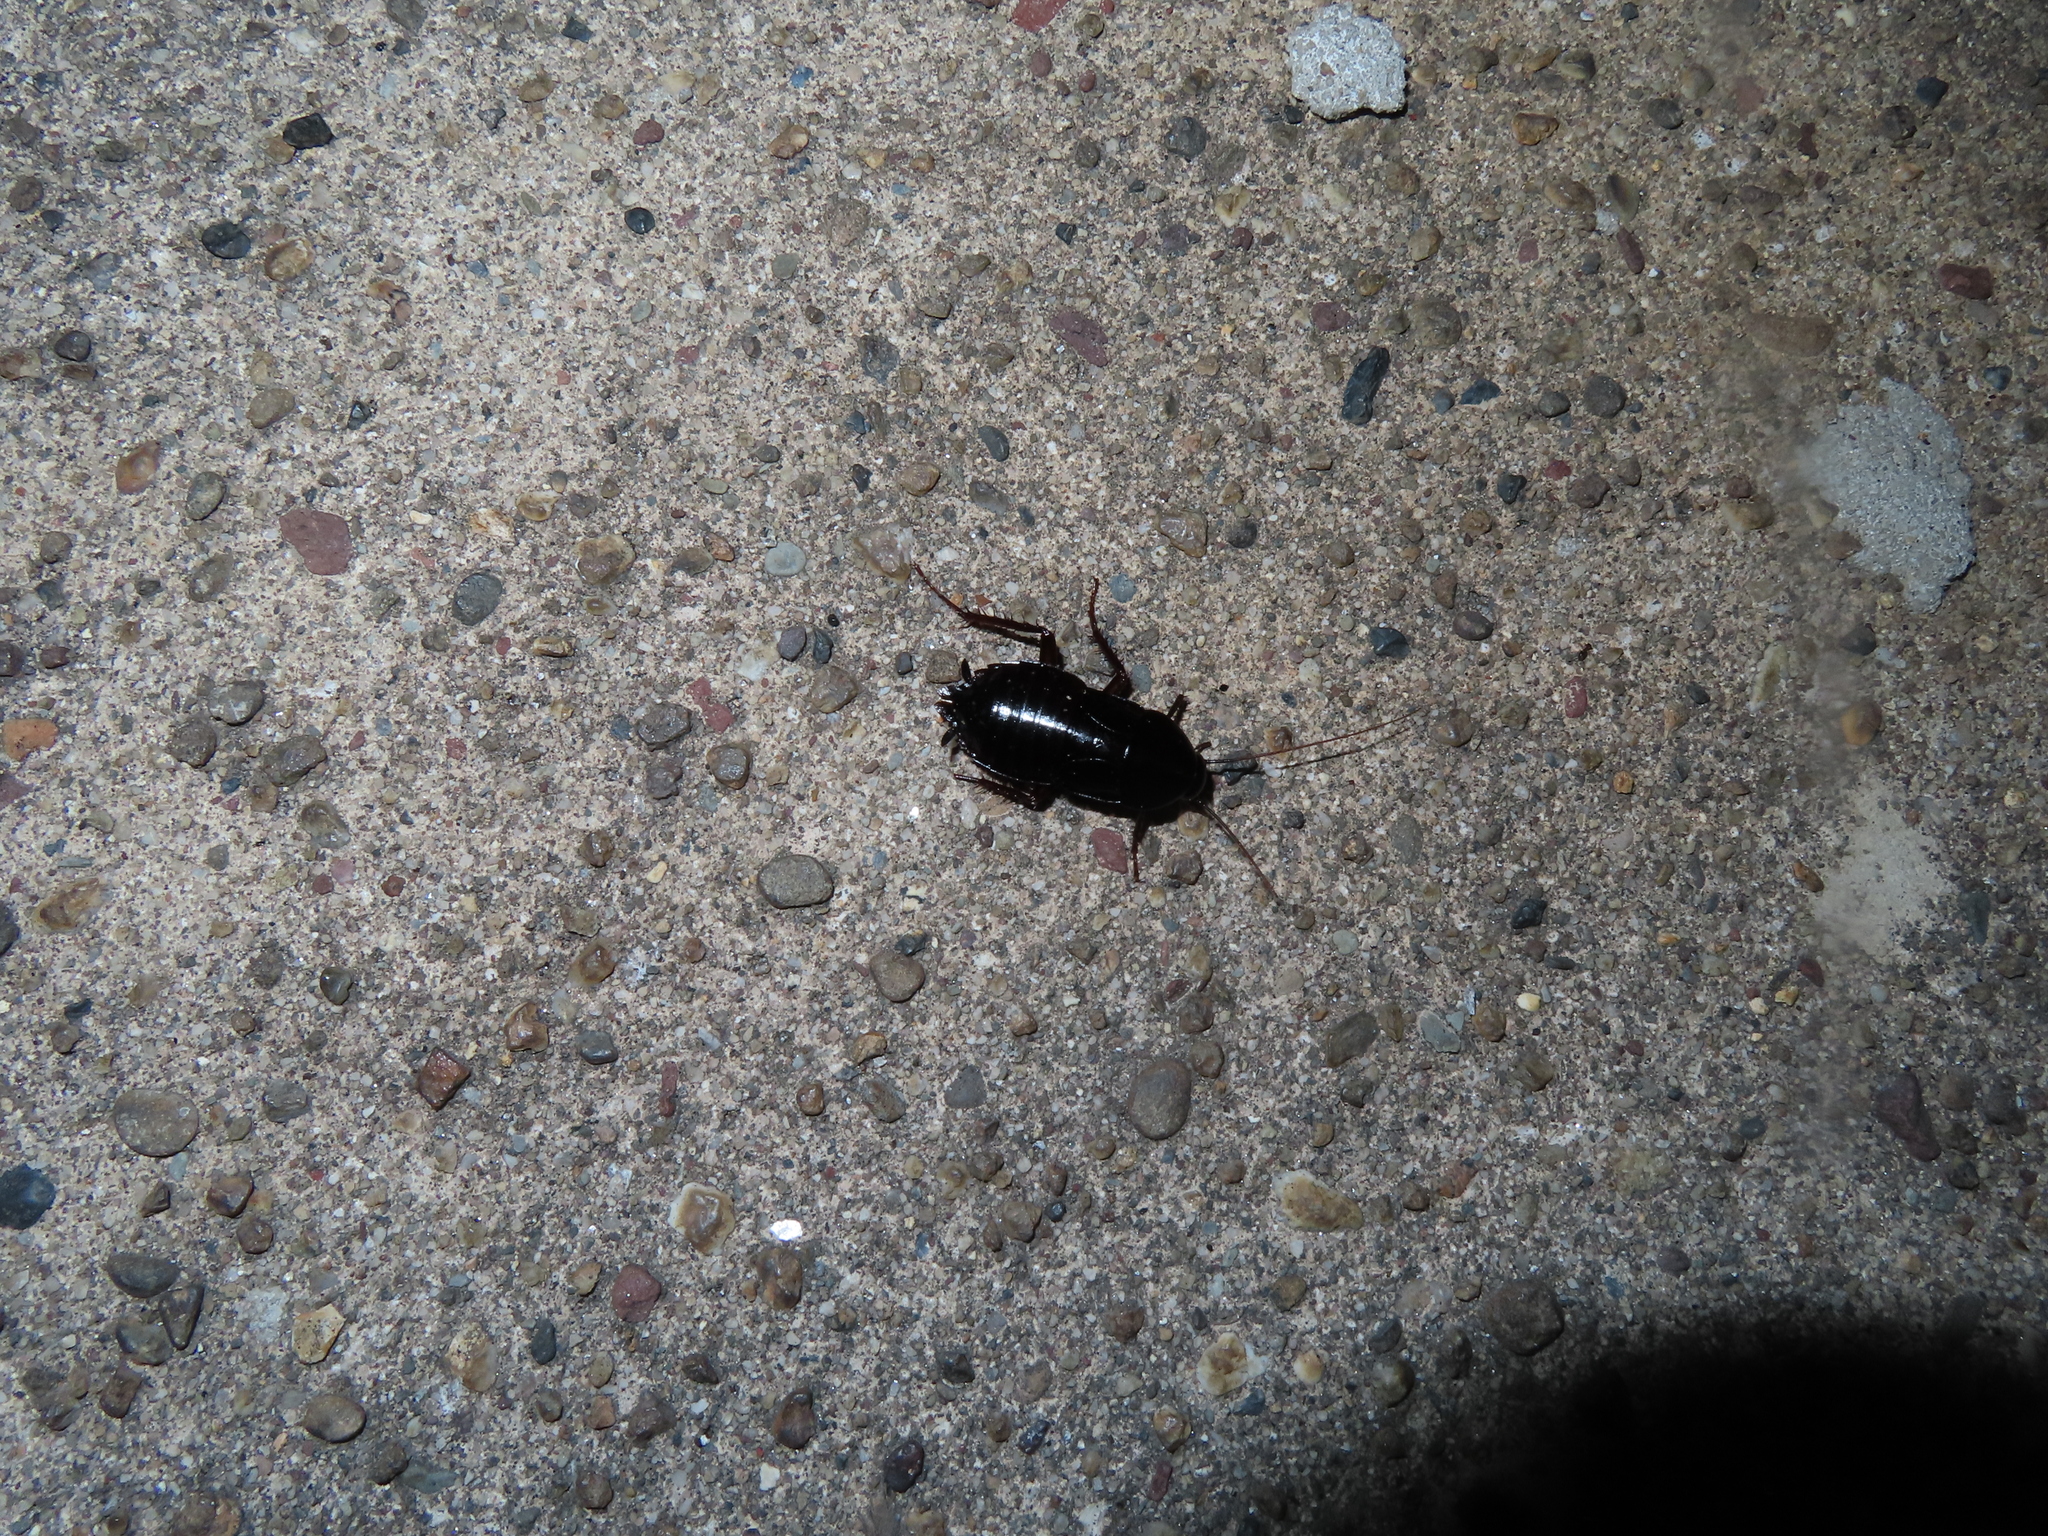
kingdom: Animalia
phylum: Arthropoda
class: Insecta
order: Blattodea
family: Blattidae
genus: Blatta
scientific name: Blatta orientalis
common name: Oriental cockroach
